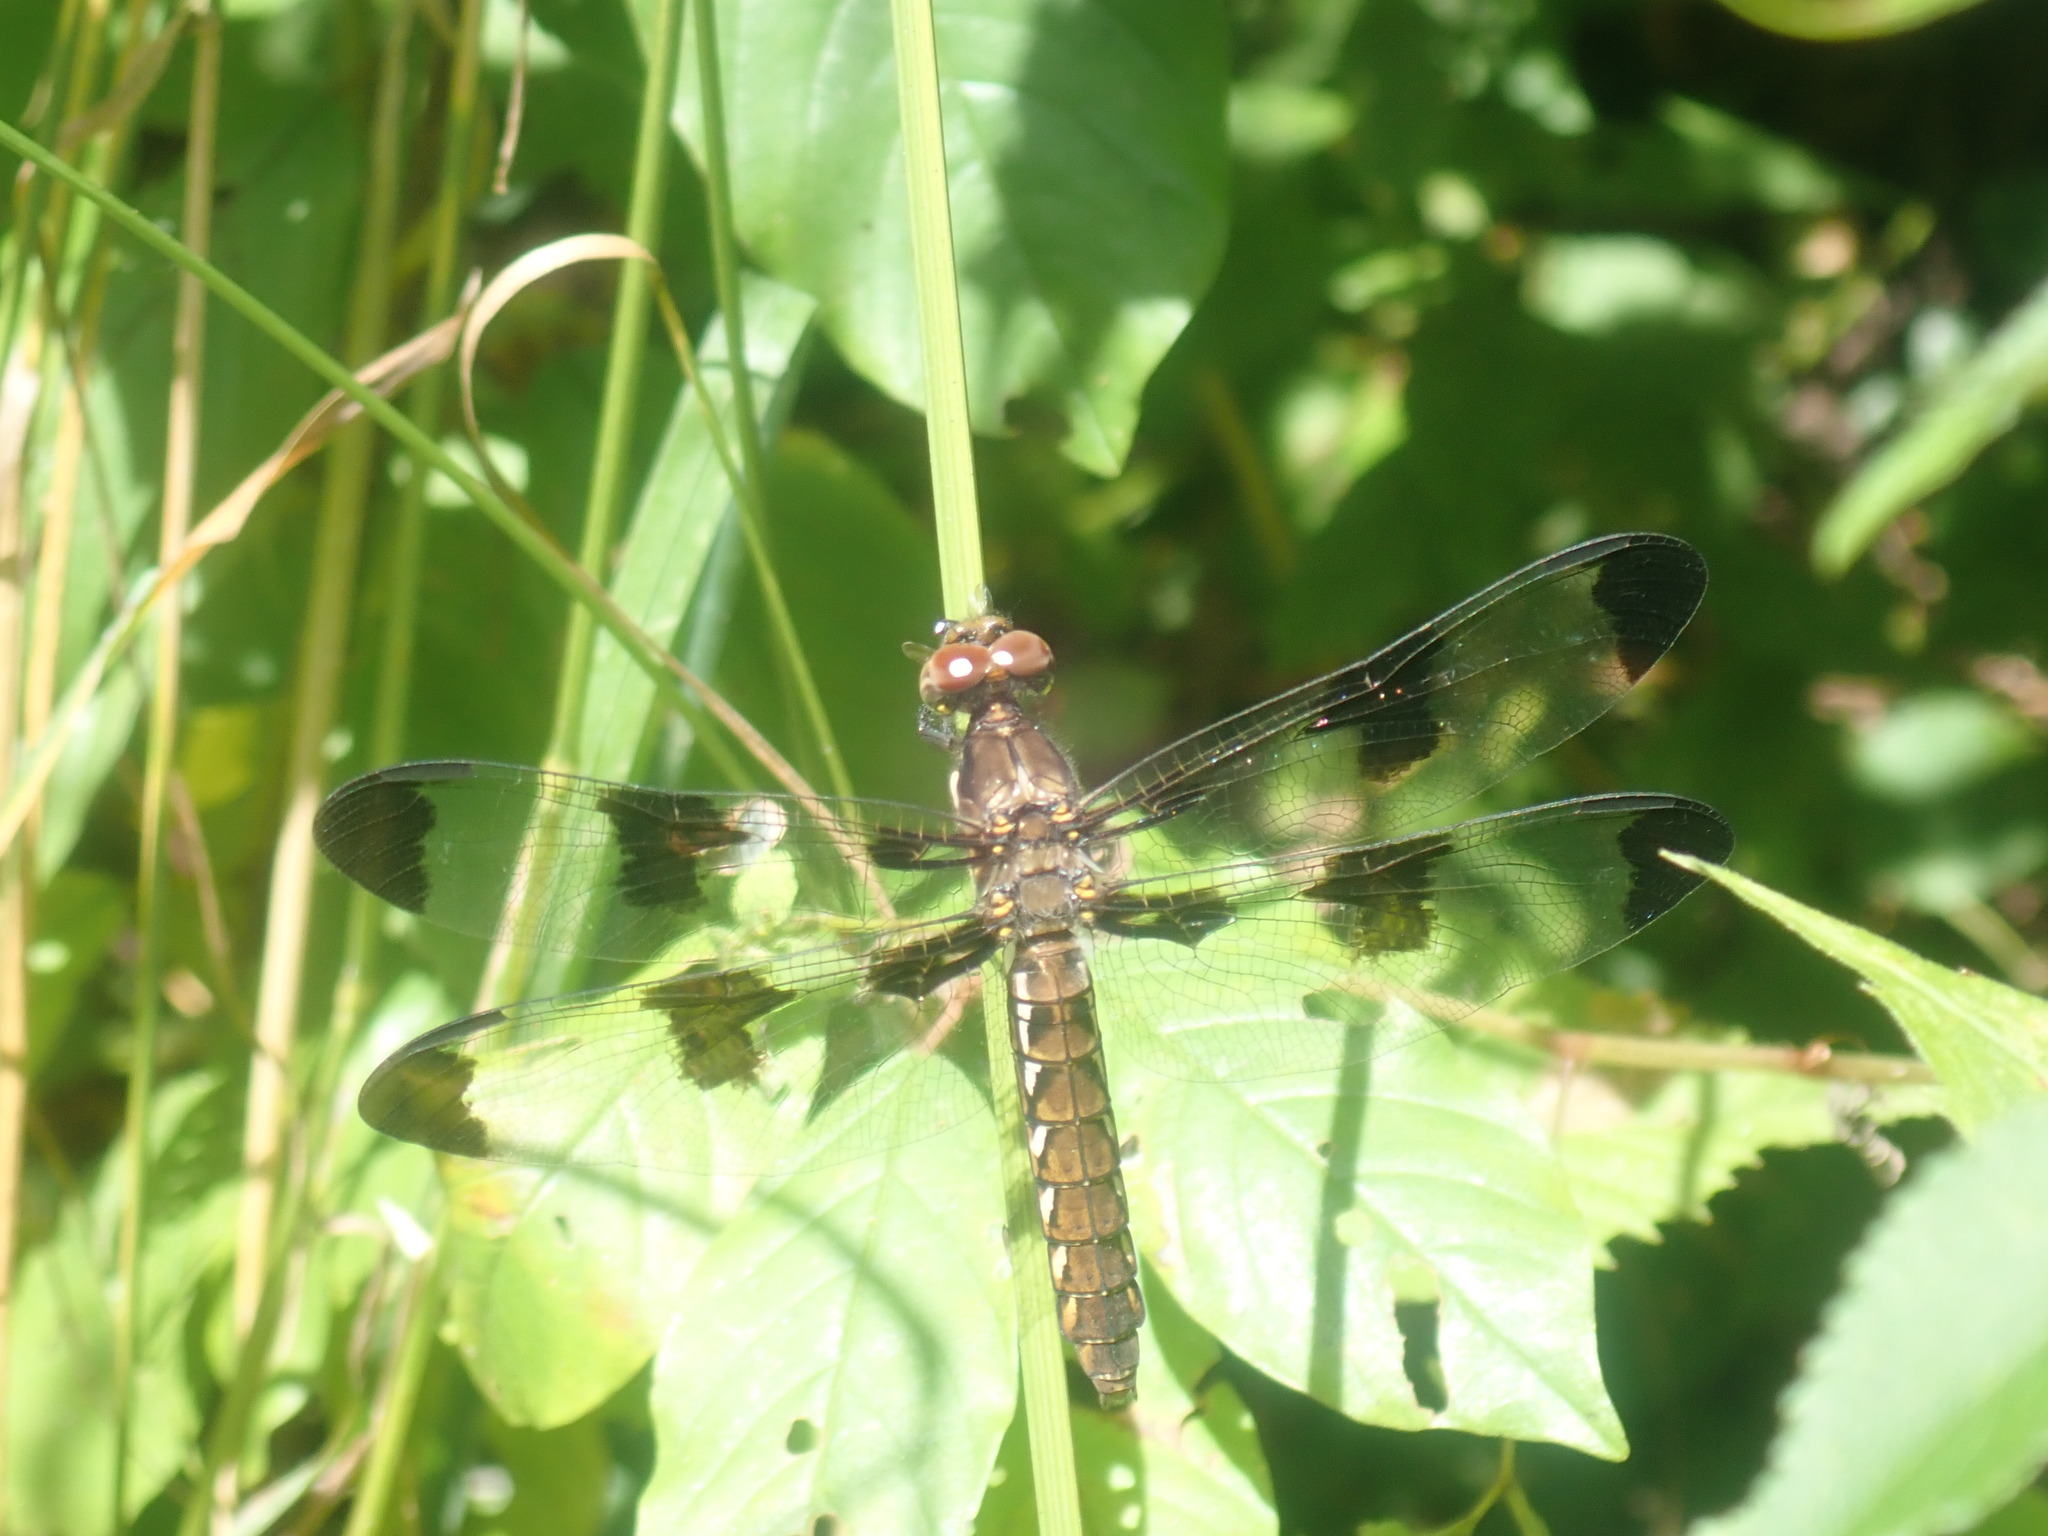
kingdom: Animalia
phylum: Arthropoda
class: Insecta
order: Odonata
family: Libellulidae
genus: Plathemis
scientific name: Plathemis lydia
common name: Common whitetail
